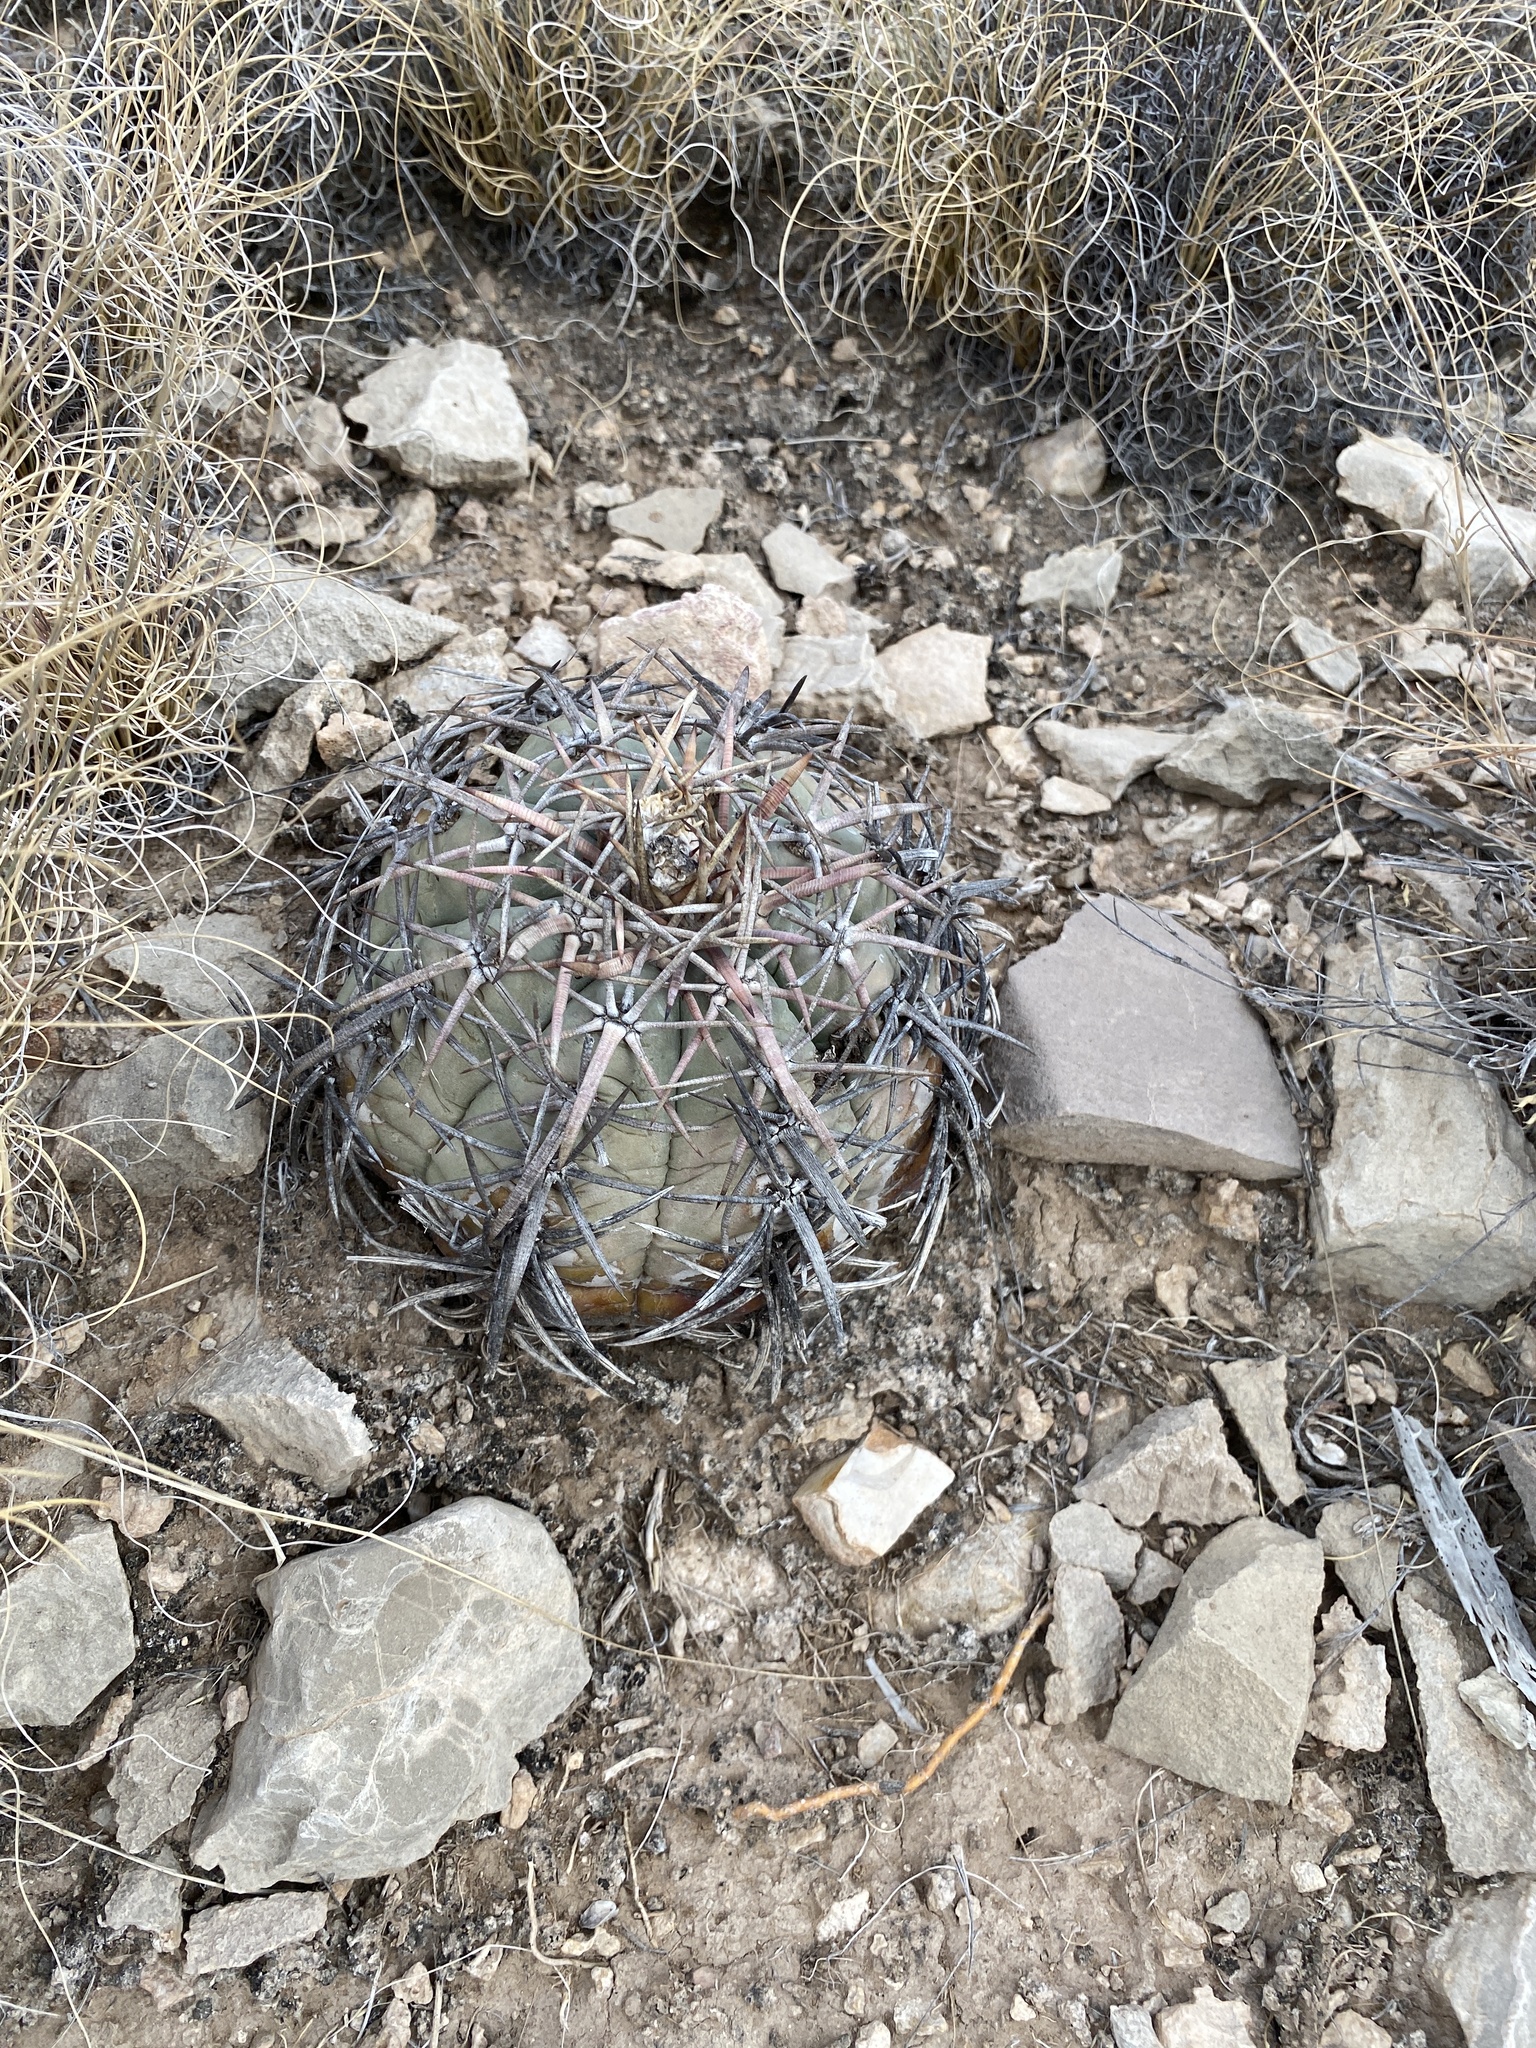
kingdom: Plantae
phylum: Tracheophyta
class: Magnoliopsida
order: Caryophyllales
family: Cactaceae
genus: Echinocactus
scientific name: Echinocactus horizonthalonius
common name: Devilshead
